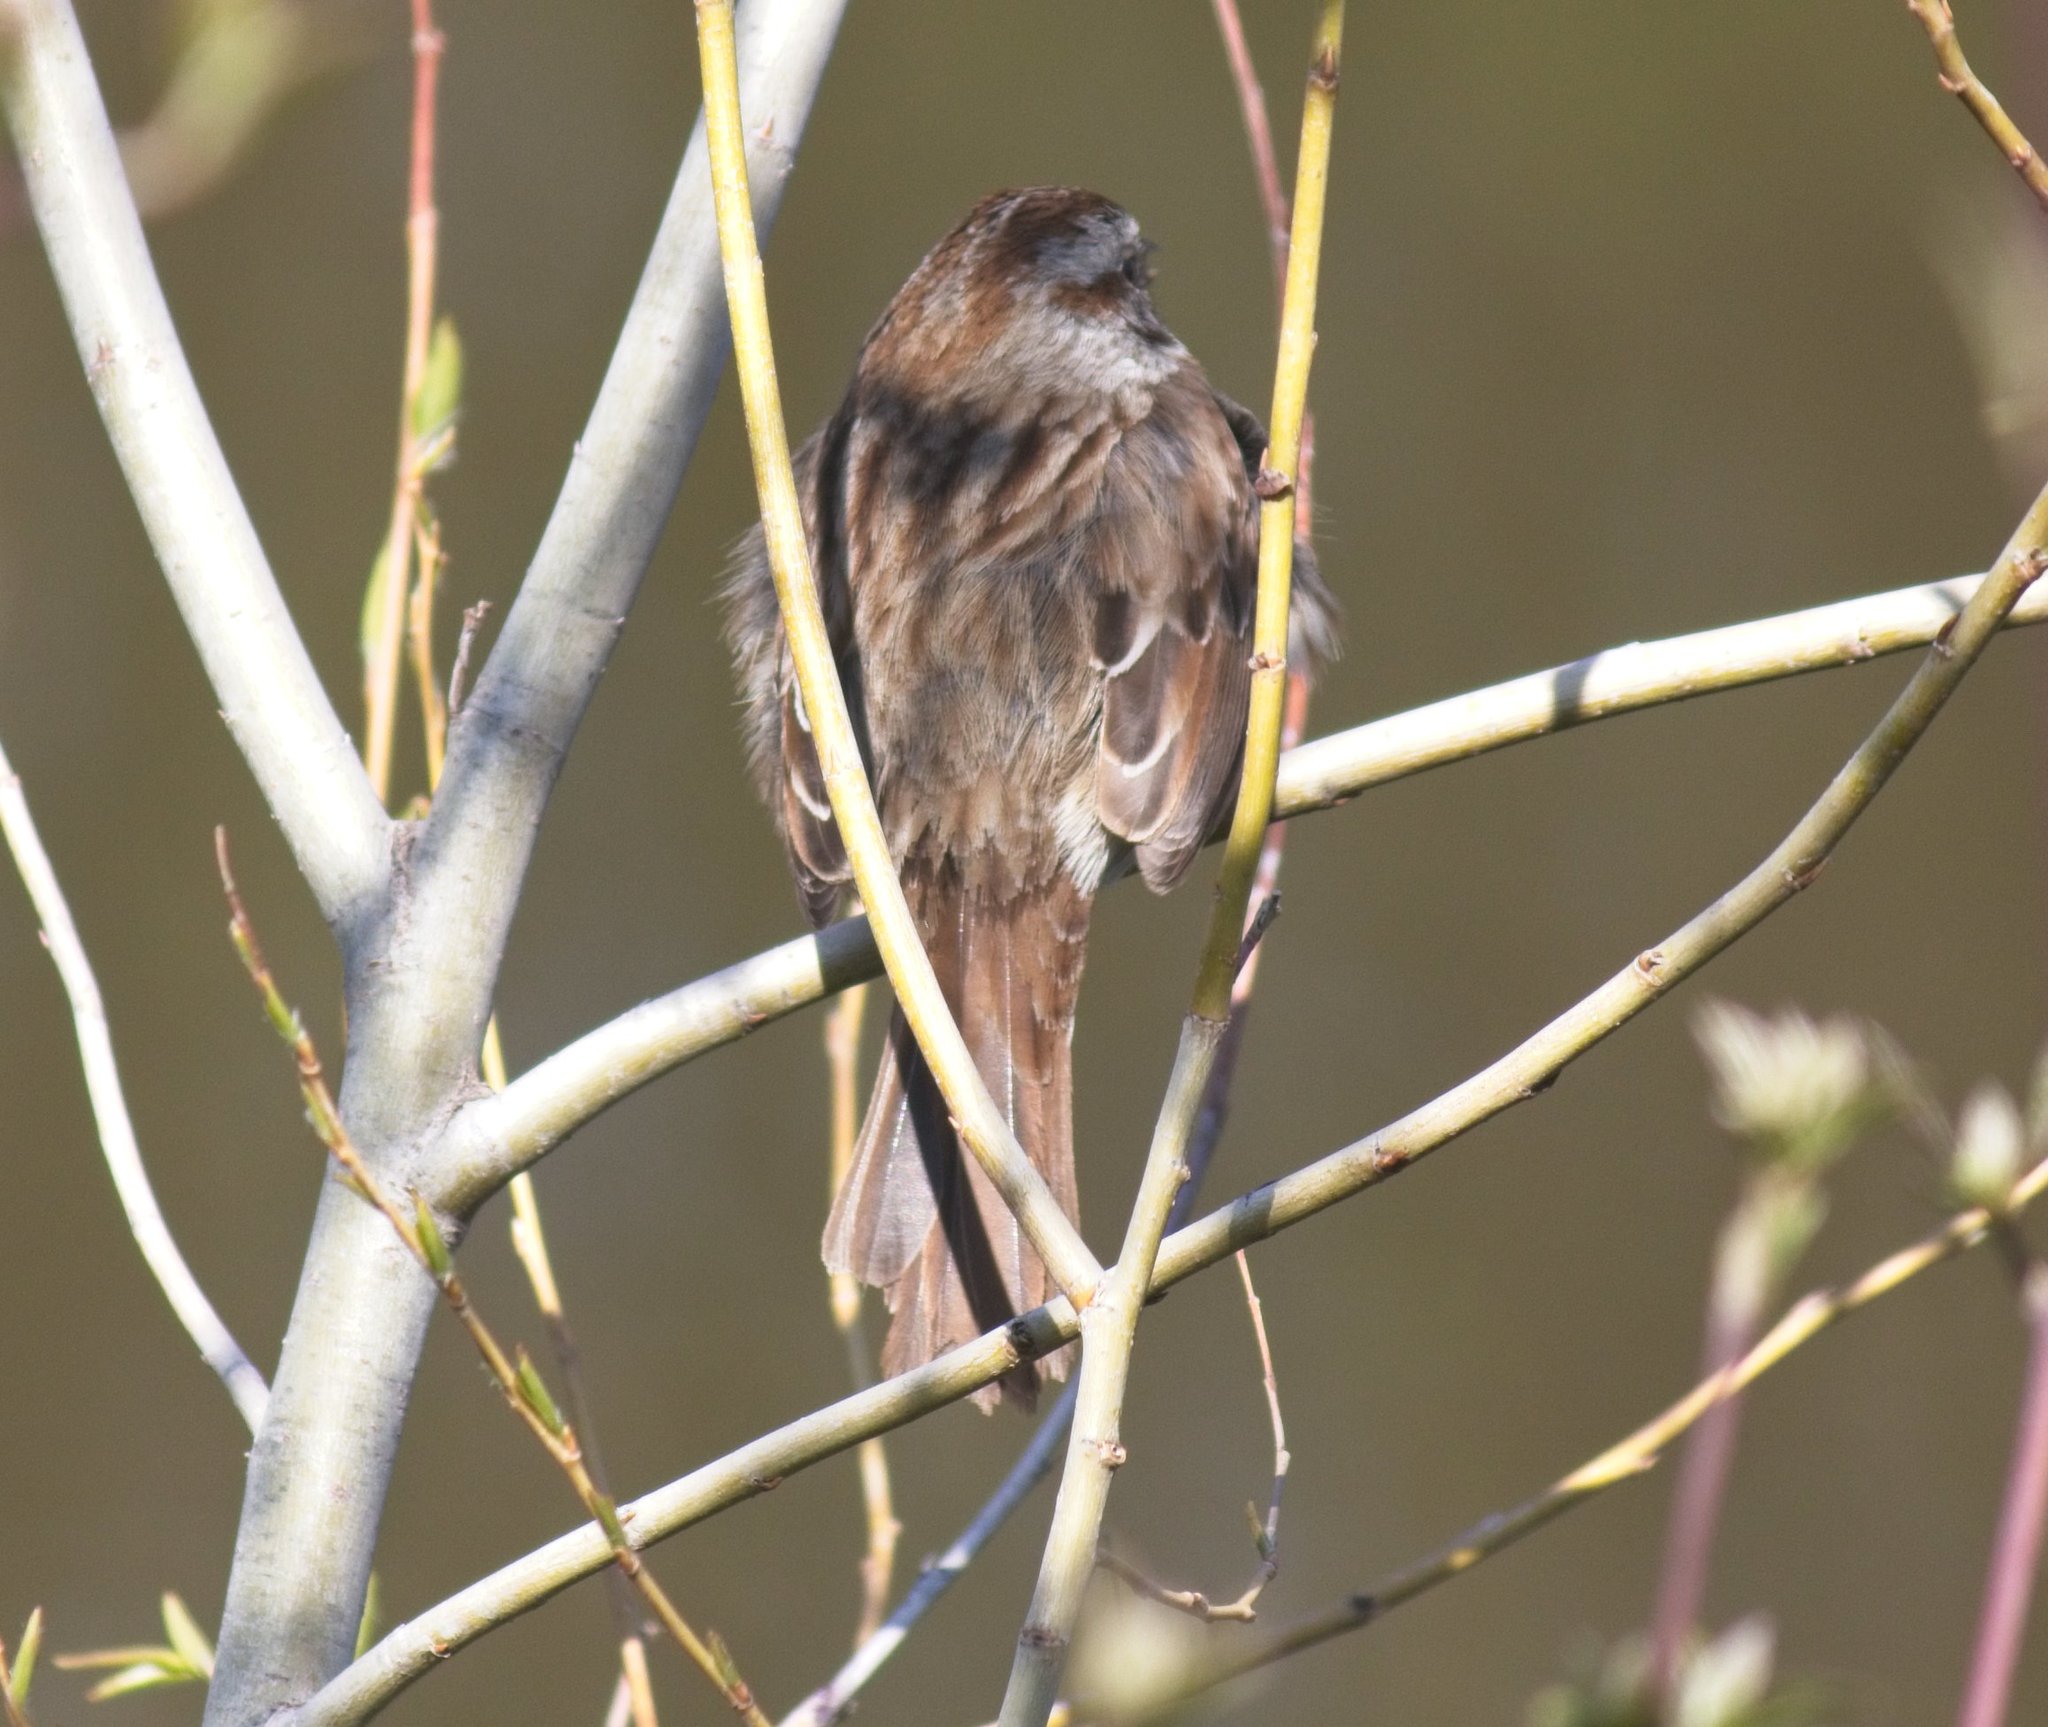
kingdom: Animalia
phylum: Chordata
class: Aves
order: Passeriformes
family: Passerellidae
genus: Melospiza
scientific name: Melospiza melodia
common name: Song sparrow
